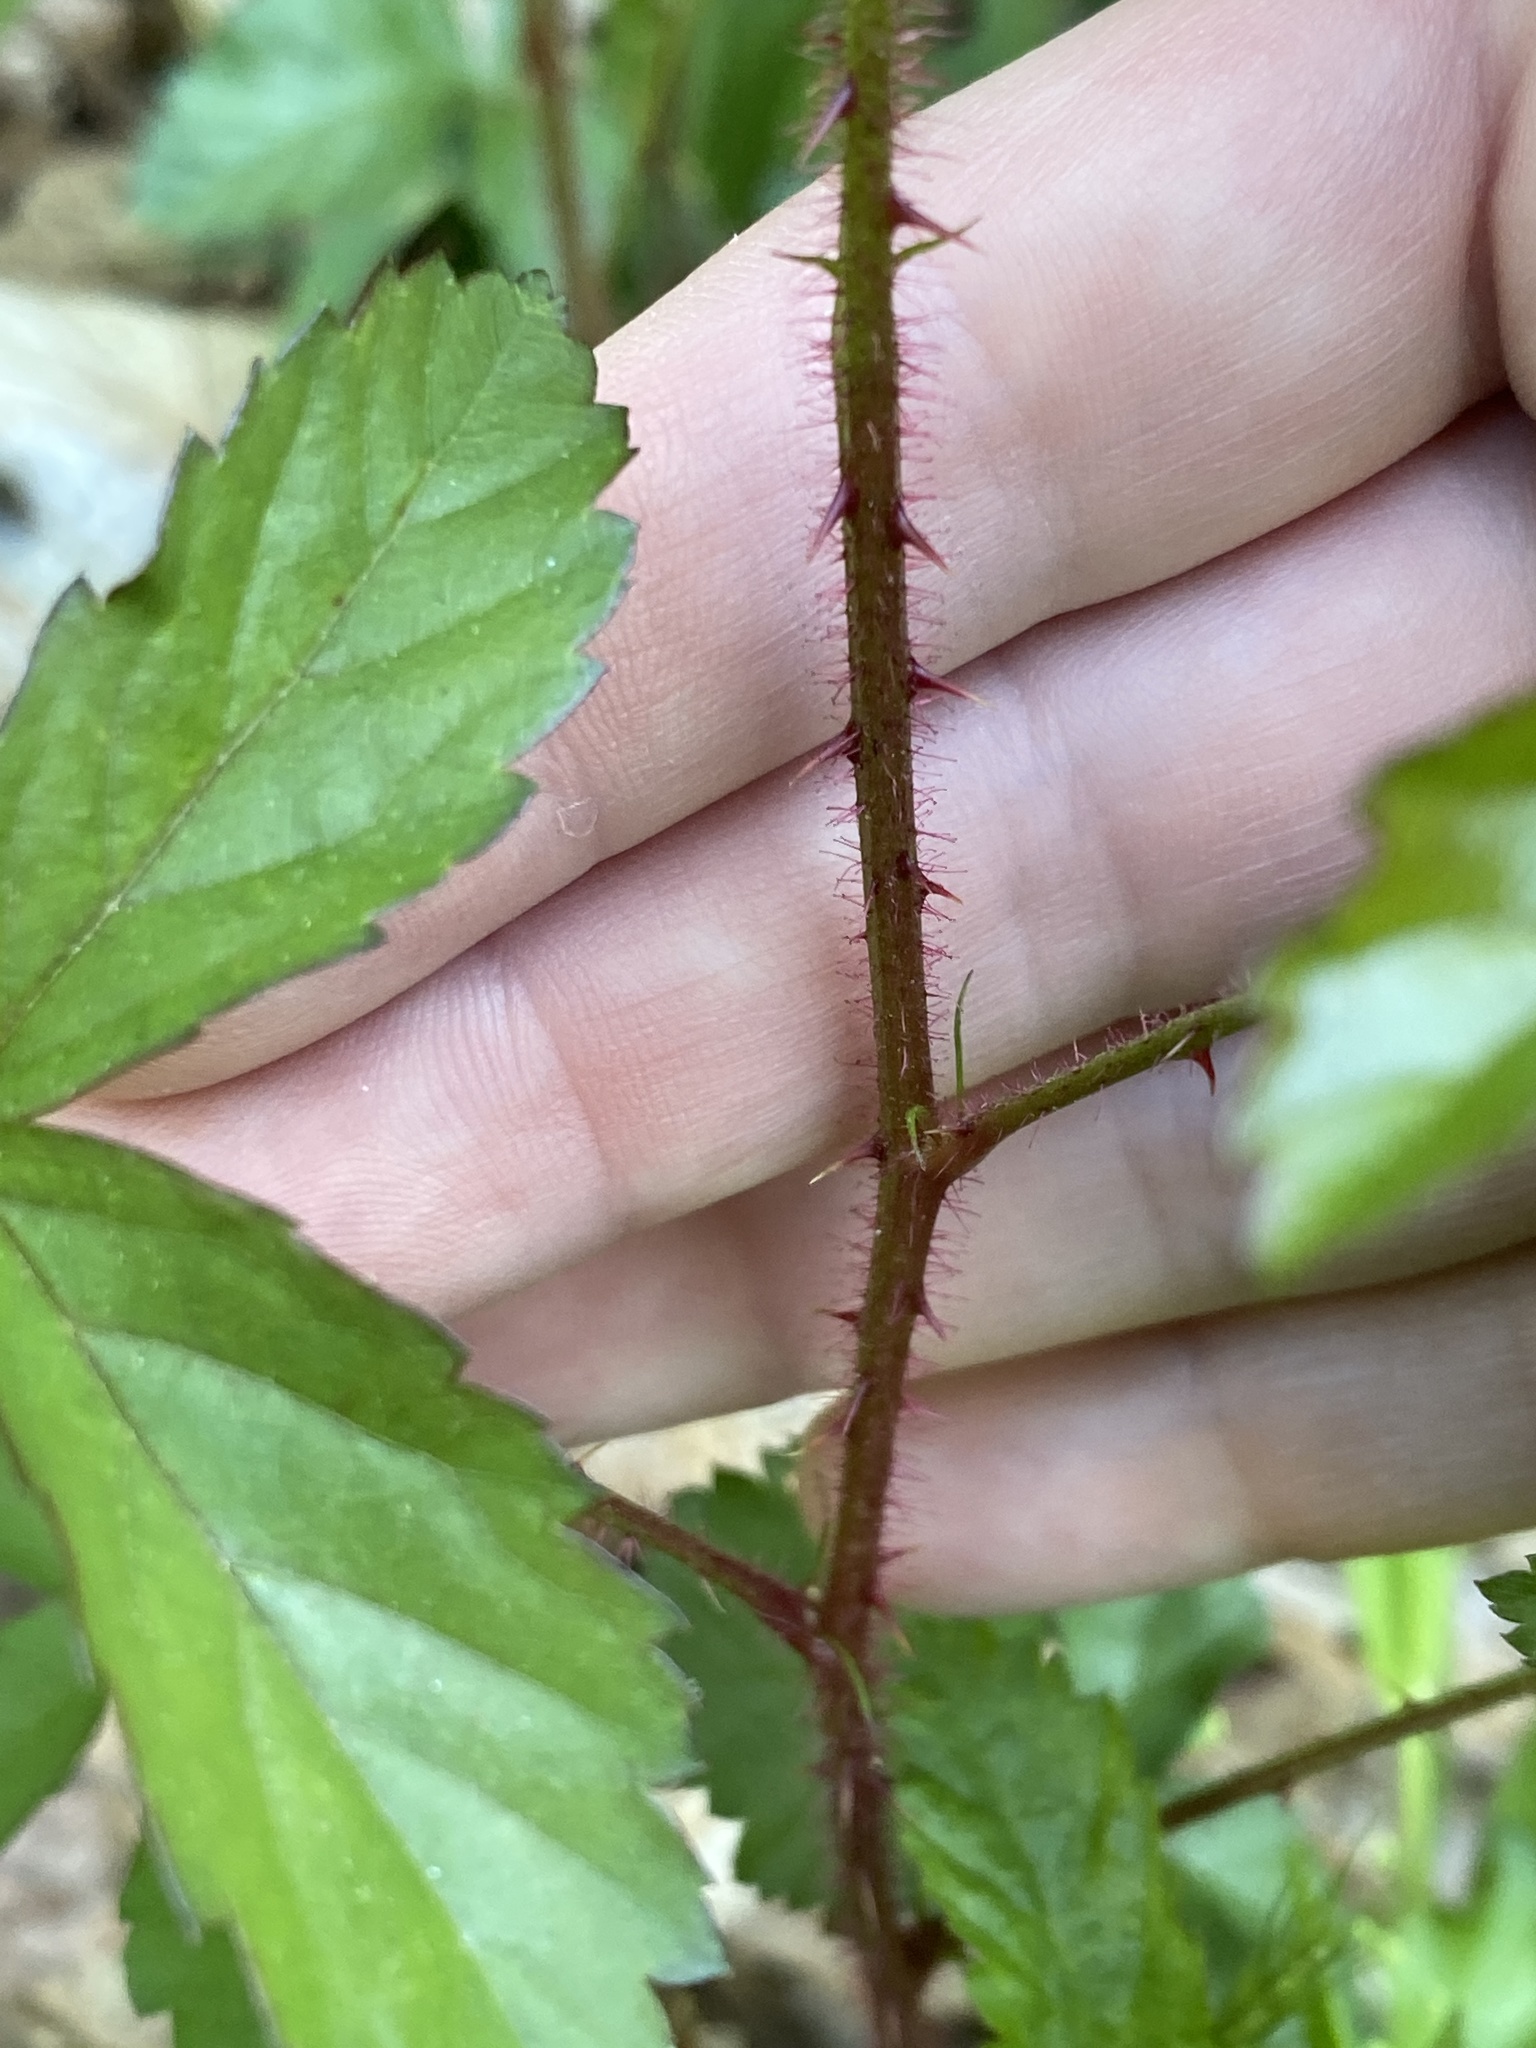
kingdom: Plantae
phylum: Tracheophyta
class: Magnoliopsida
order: Rosales
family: Rosaceae
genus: Rubus
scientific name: Rubus trivialis
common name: Southern dewberry
